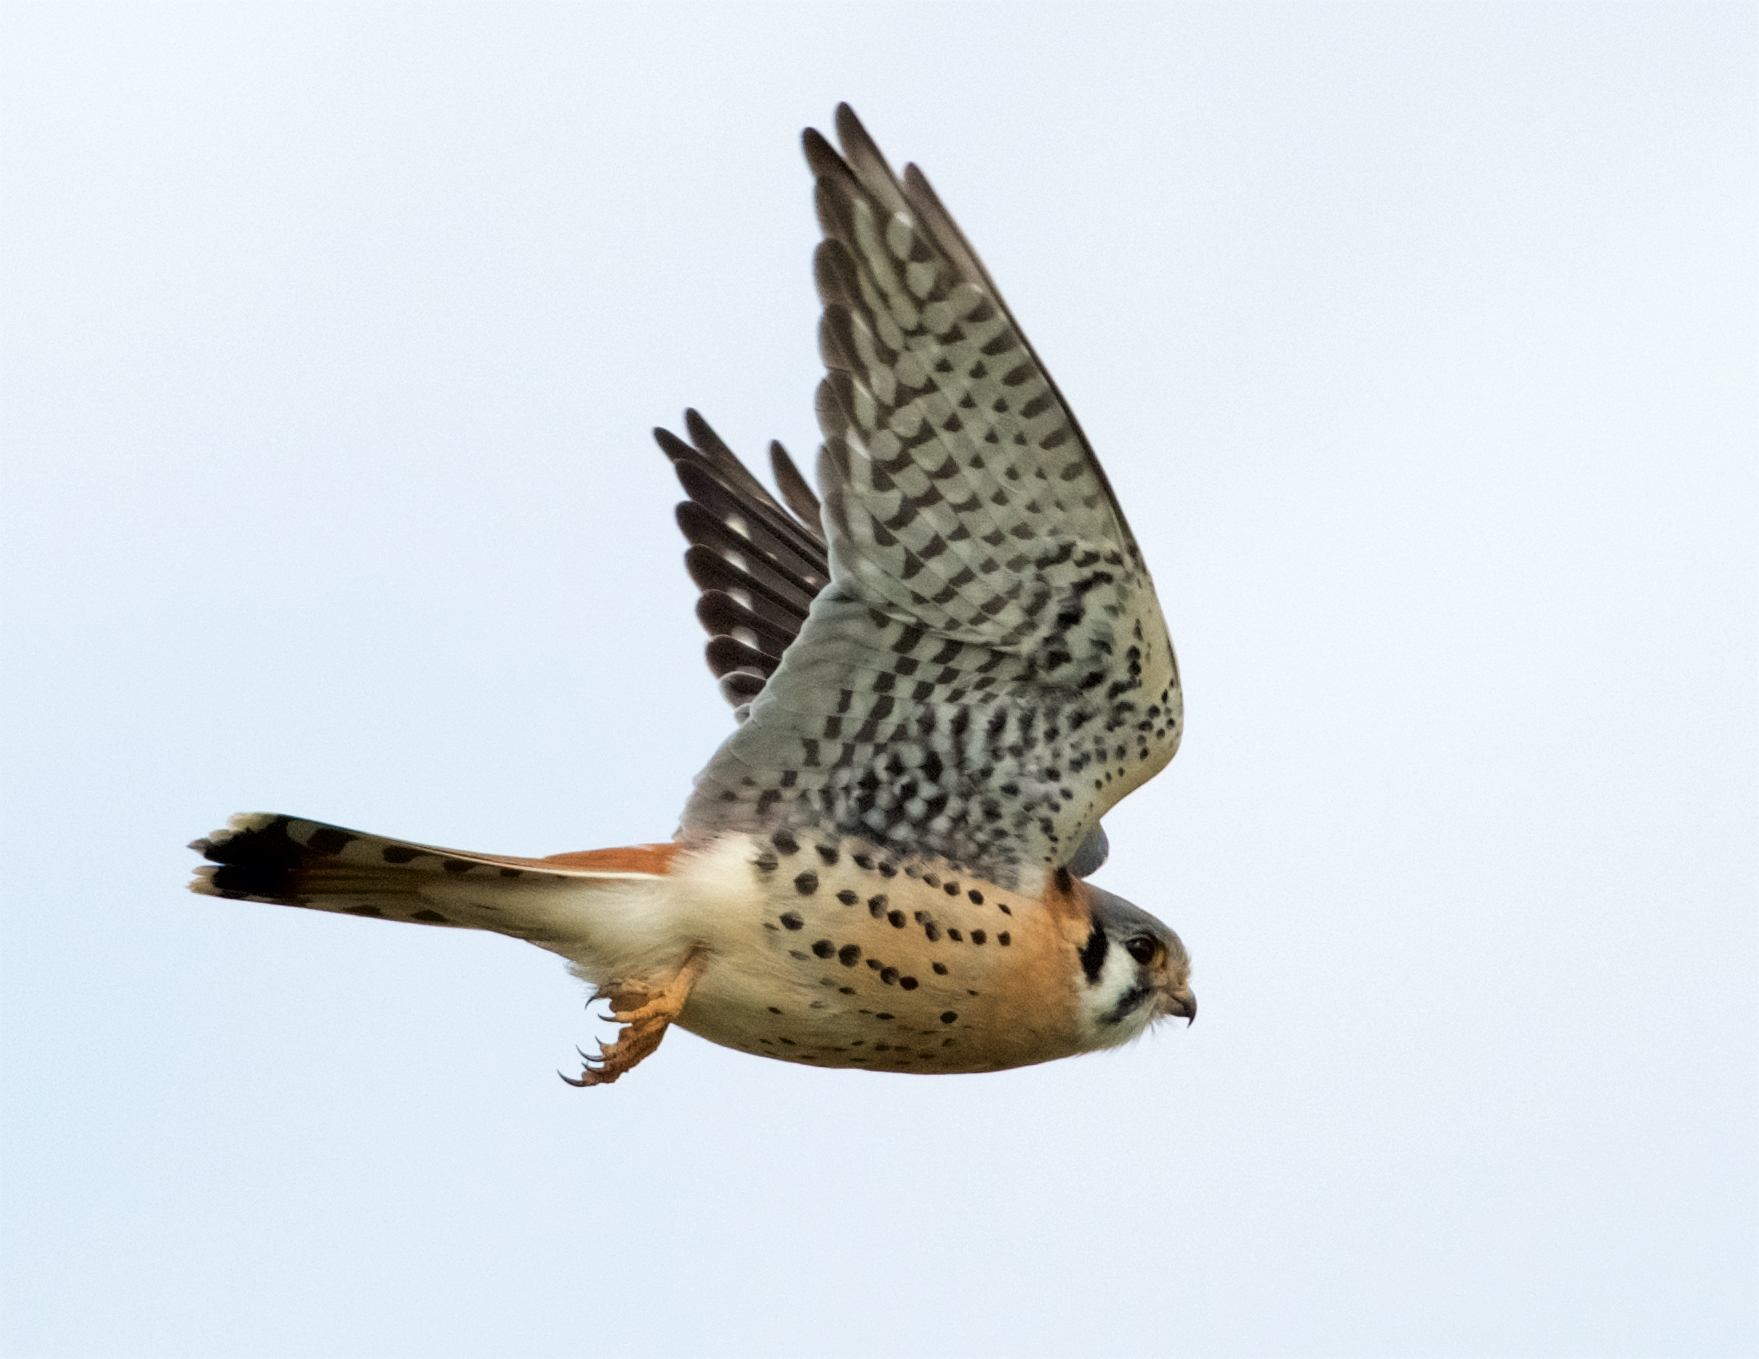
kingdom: Animalia
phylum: Chordata
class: Aves
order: Falconiformes
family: Falconidae
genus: Falco
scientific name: Falco sparverius
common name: American kestrel
